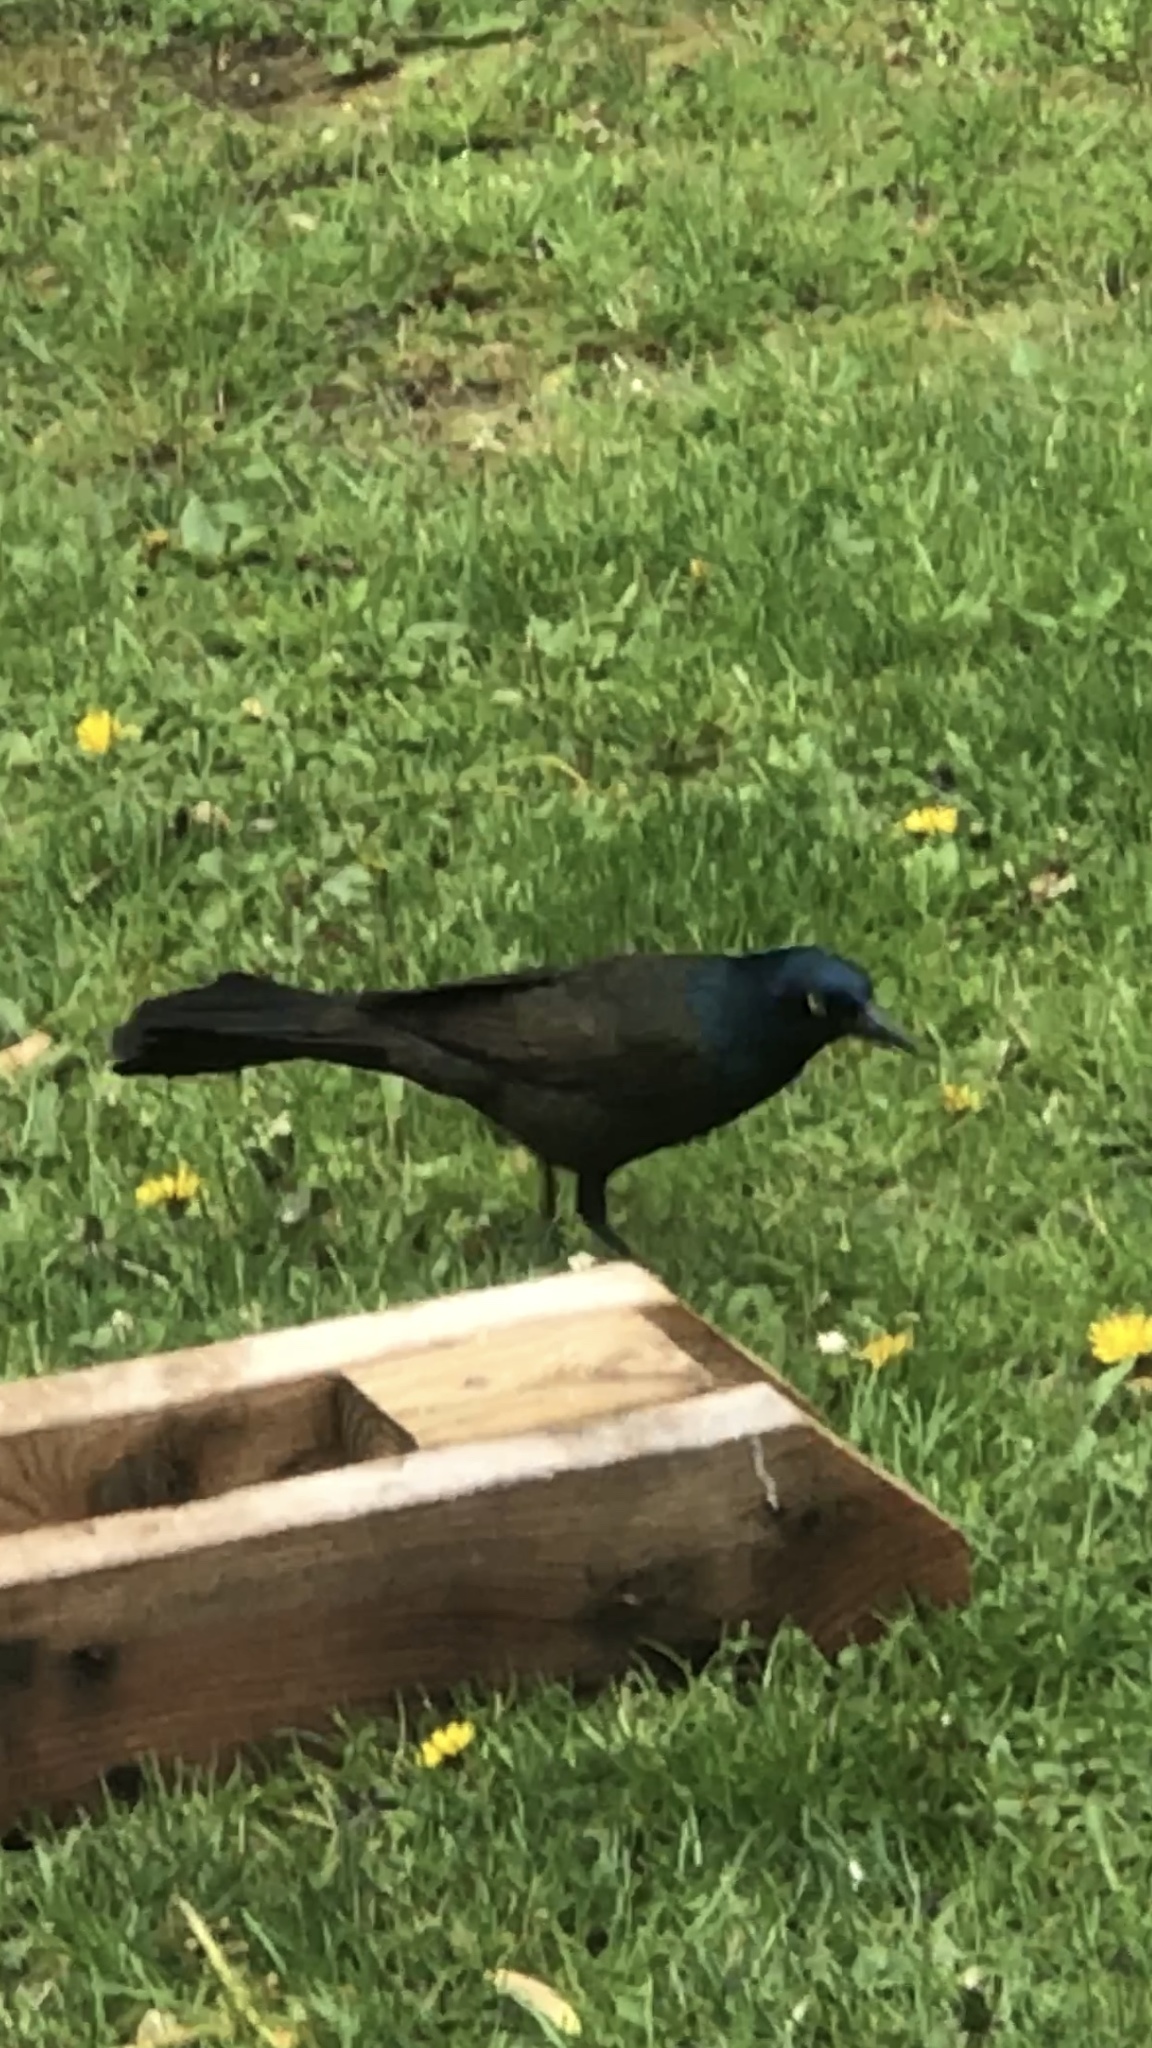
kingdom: Animalia
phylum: Chordata
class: Aves
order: Passeriformes
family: Icteridae
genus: Quiscalus
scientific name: Quiscalus quiscula
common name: Common grackle
